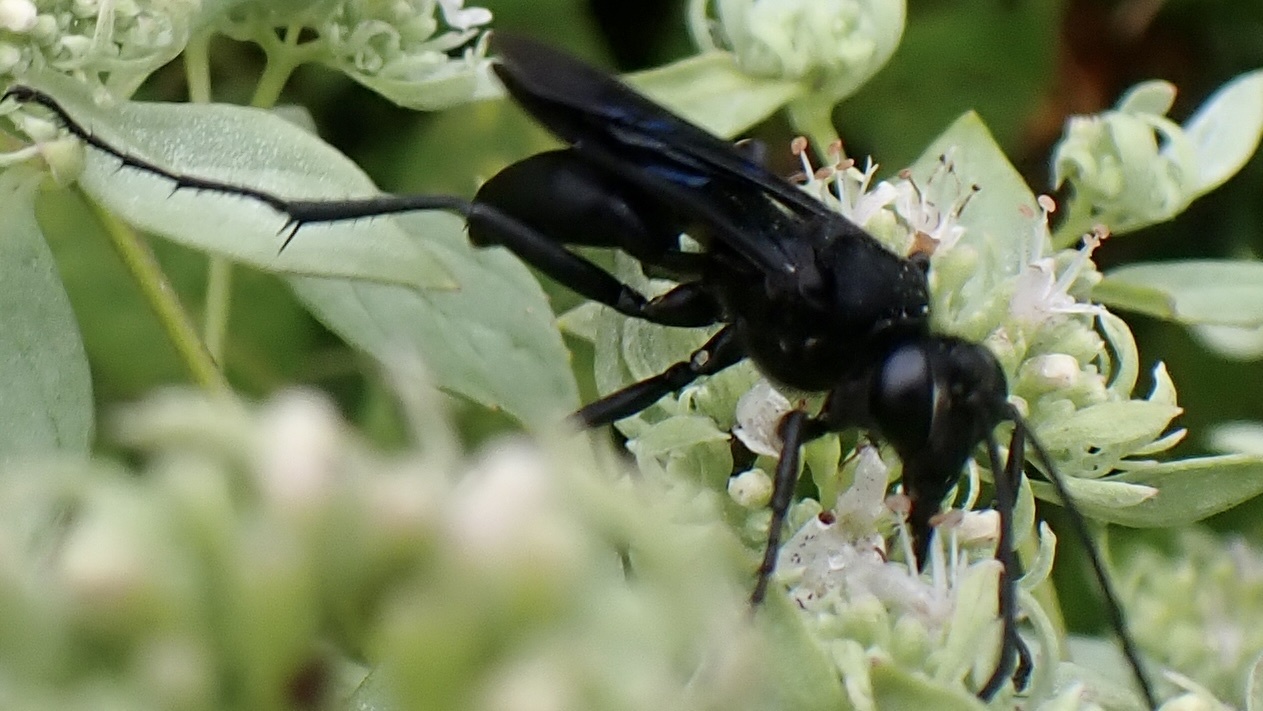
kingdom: Animalia
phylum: Arthropoda
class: Insecta
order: Hymenoptera
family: Sphecidae
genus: Sphex
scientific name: Sphex pensylvanicus
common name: Great black digger wasp
